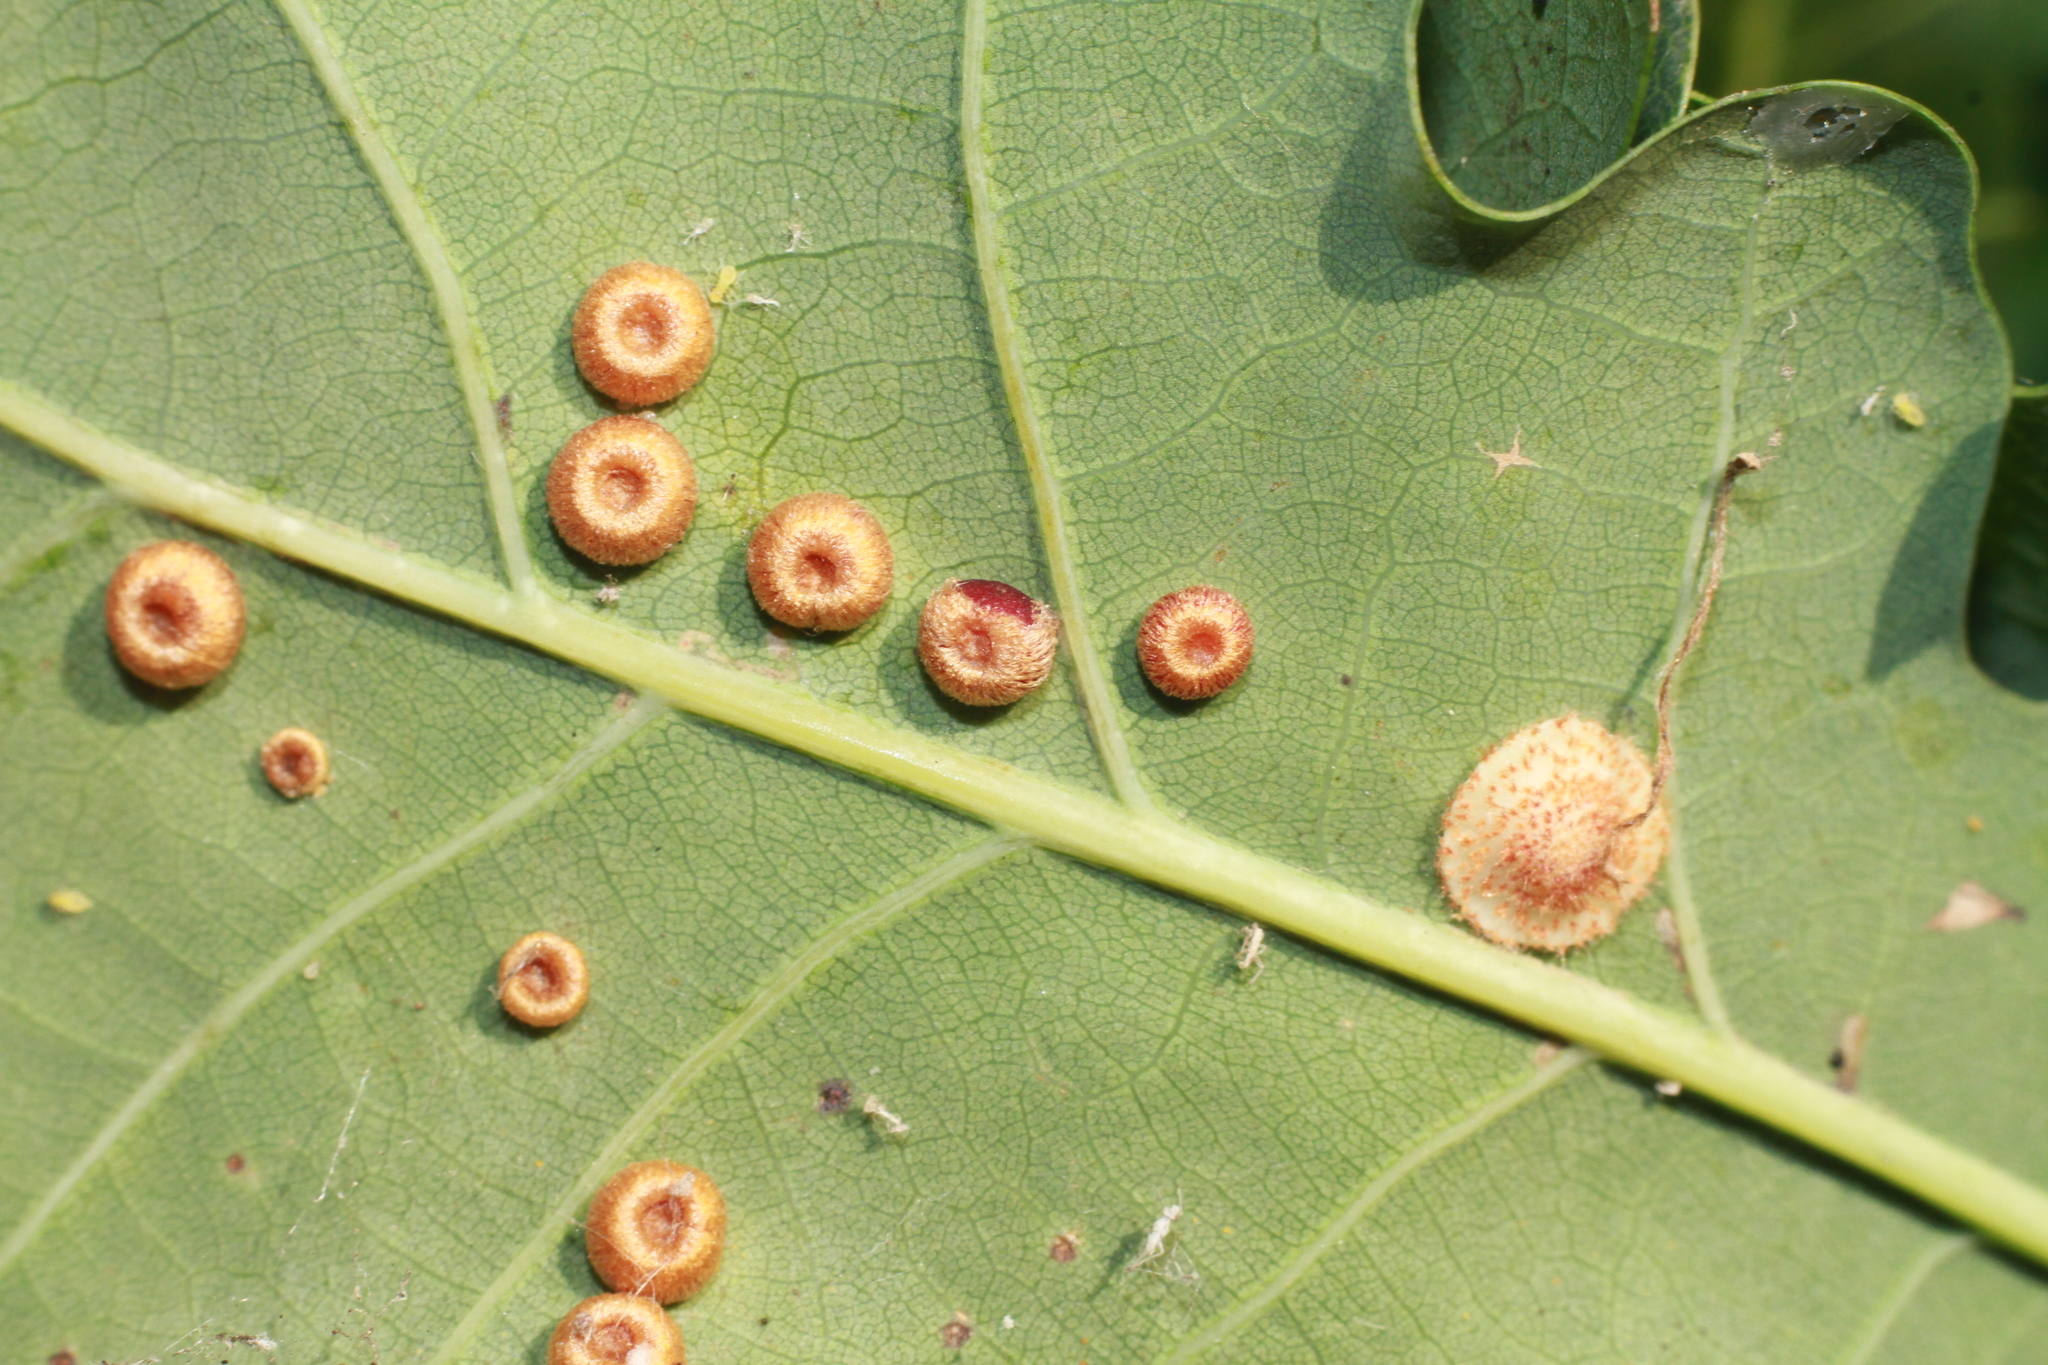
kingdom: Animalia
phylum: Arthropoda
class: Insecta
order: Hymenoptera
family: Cynipidae
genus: Neuroterus
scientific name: Neuroterus numismalis
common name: Silk-button spangle gall
